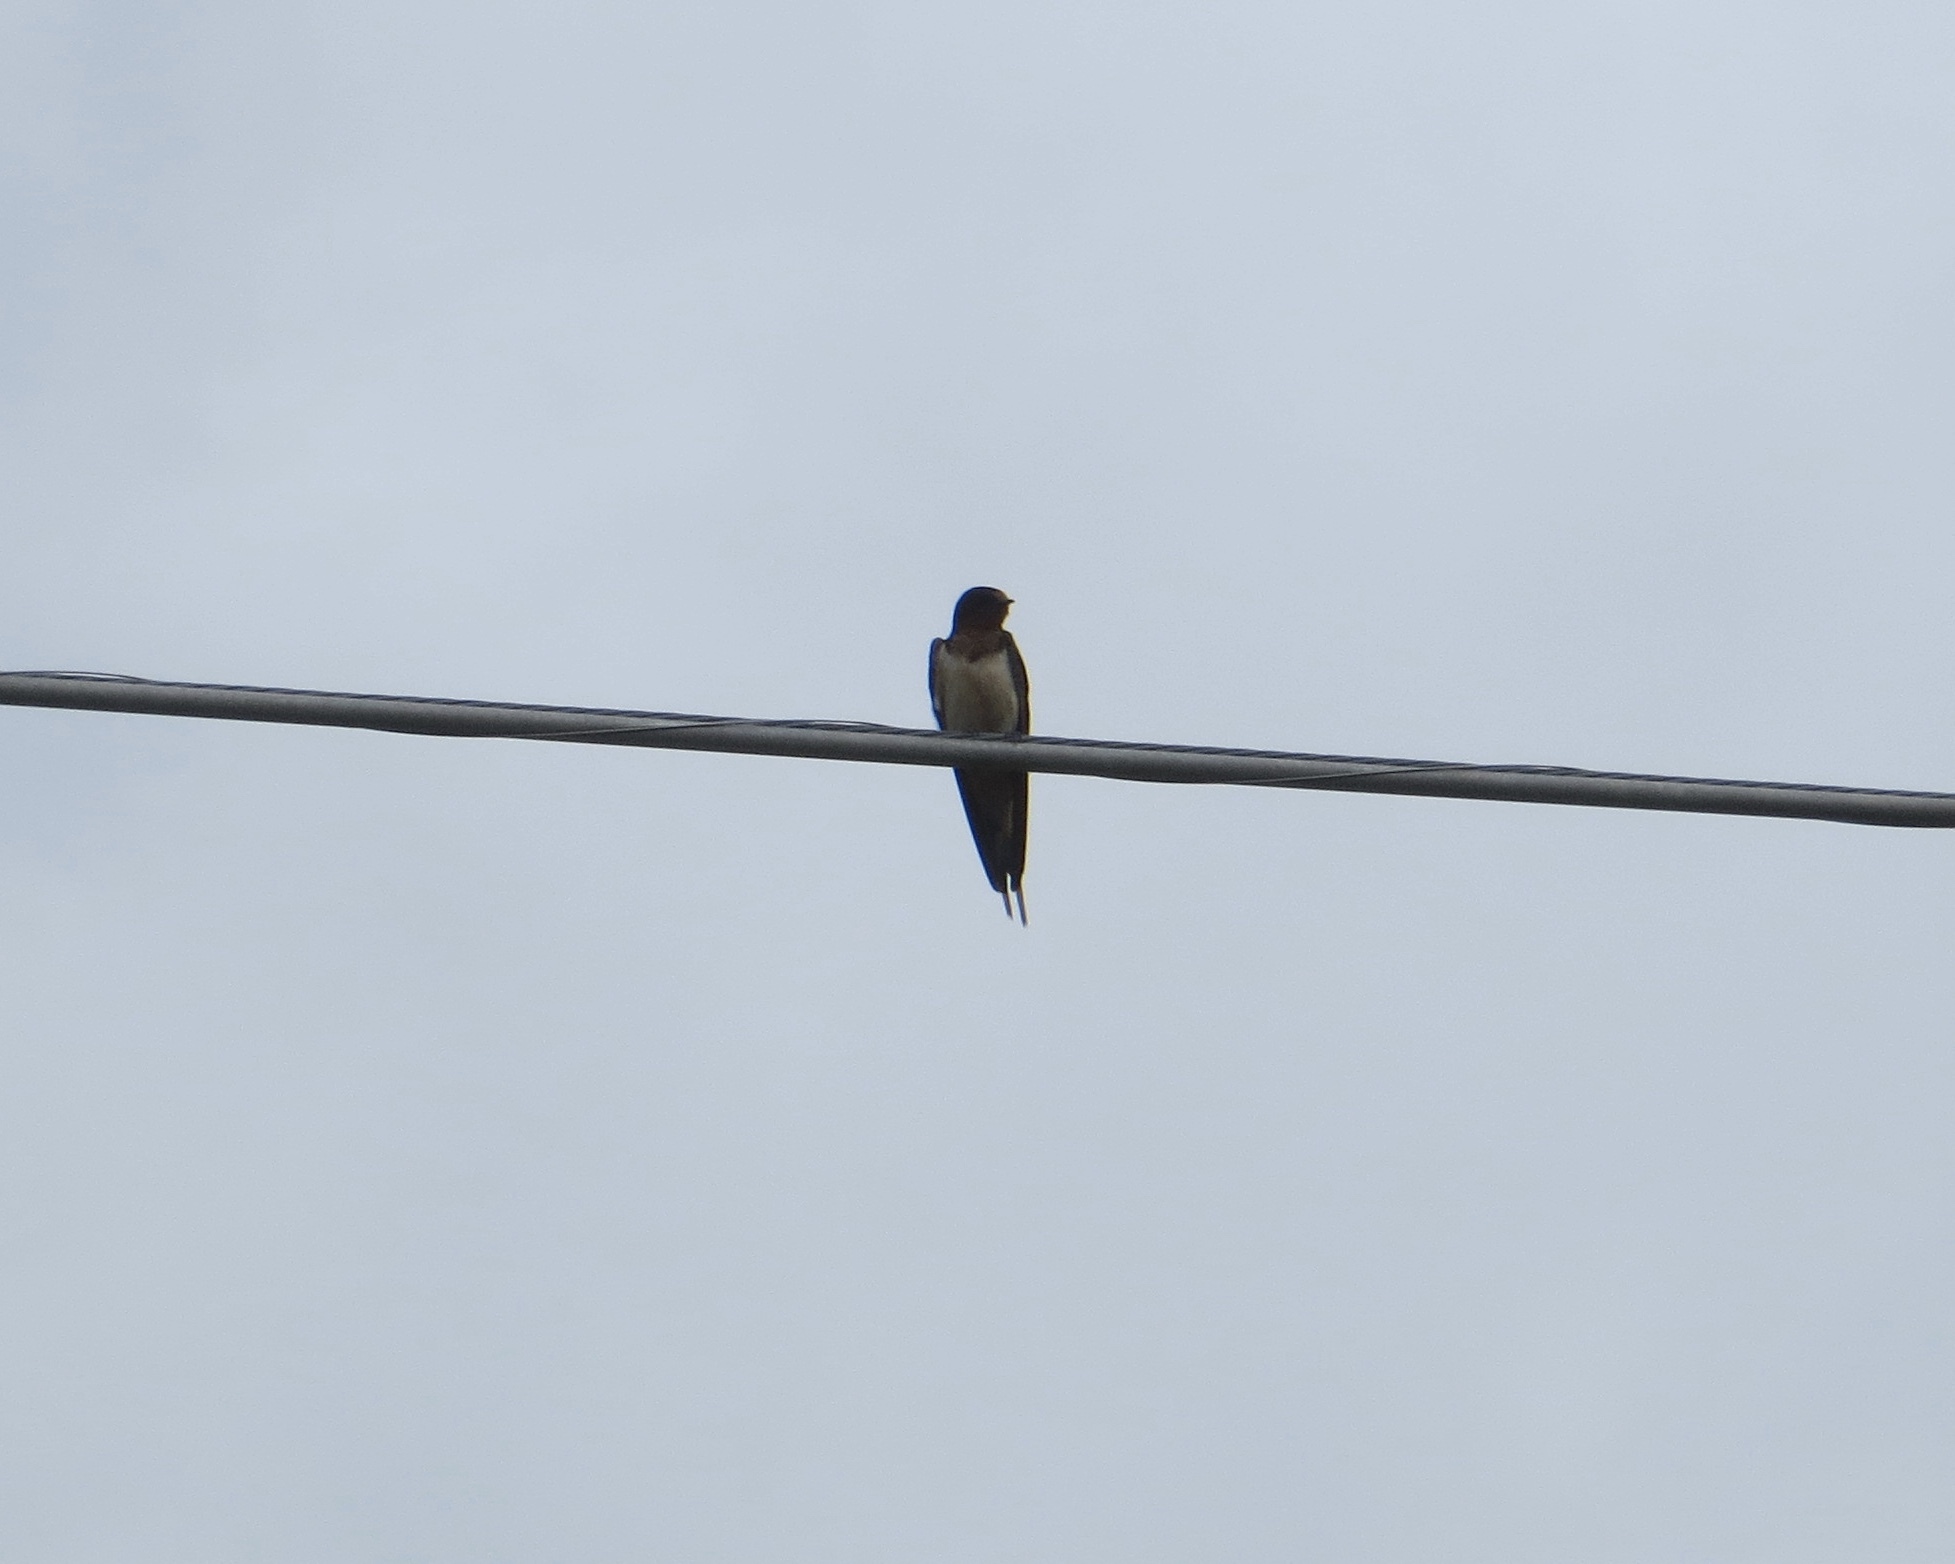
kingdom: Animalia
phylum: Chordata
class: Aves
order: Passeriformes
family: Hirundinidae
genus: Hirundo
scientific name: Hirundo rustica
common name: Barn swallow
